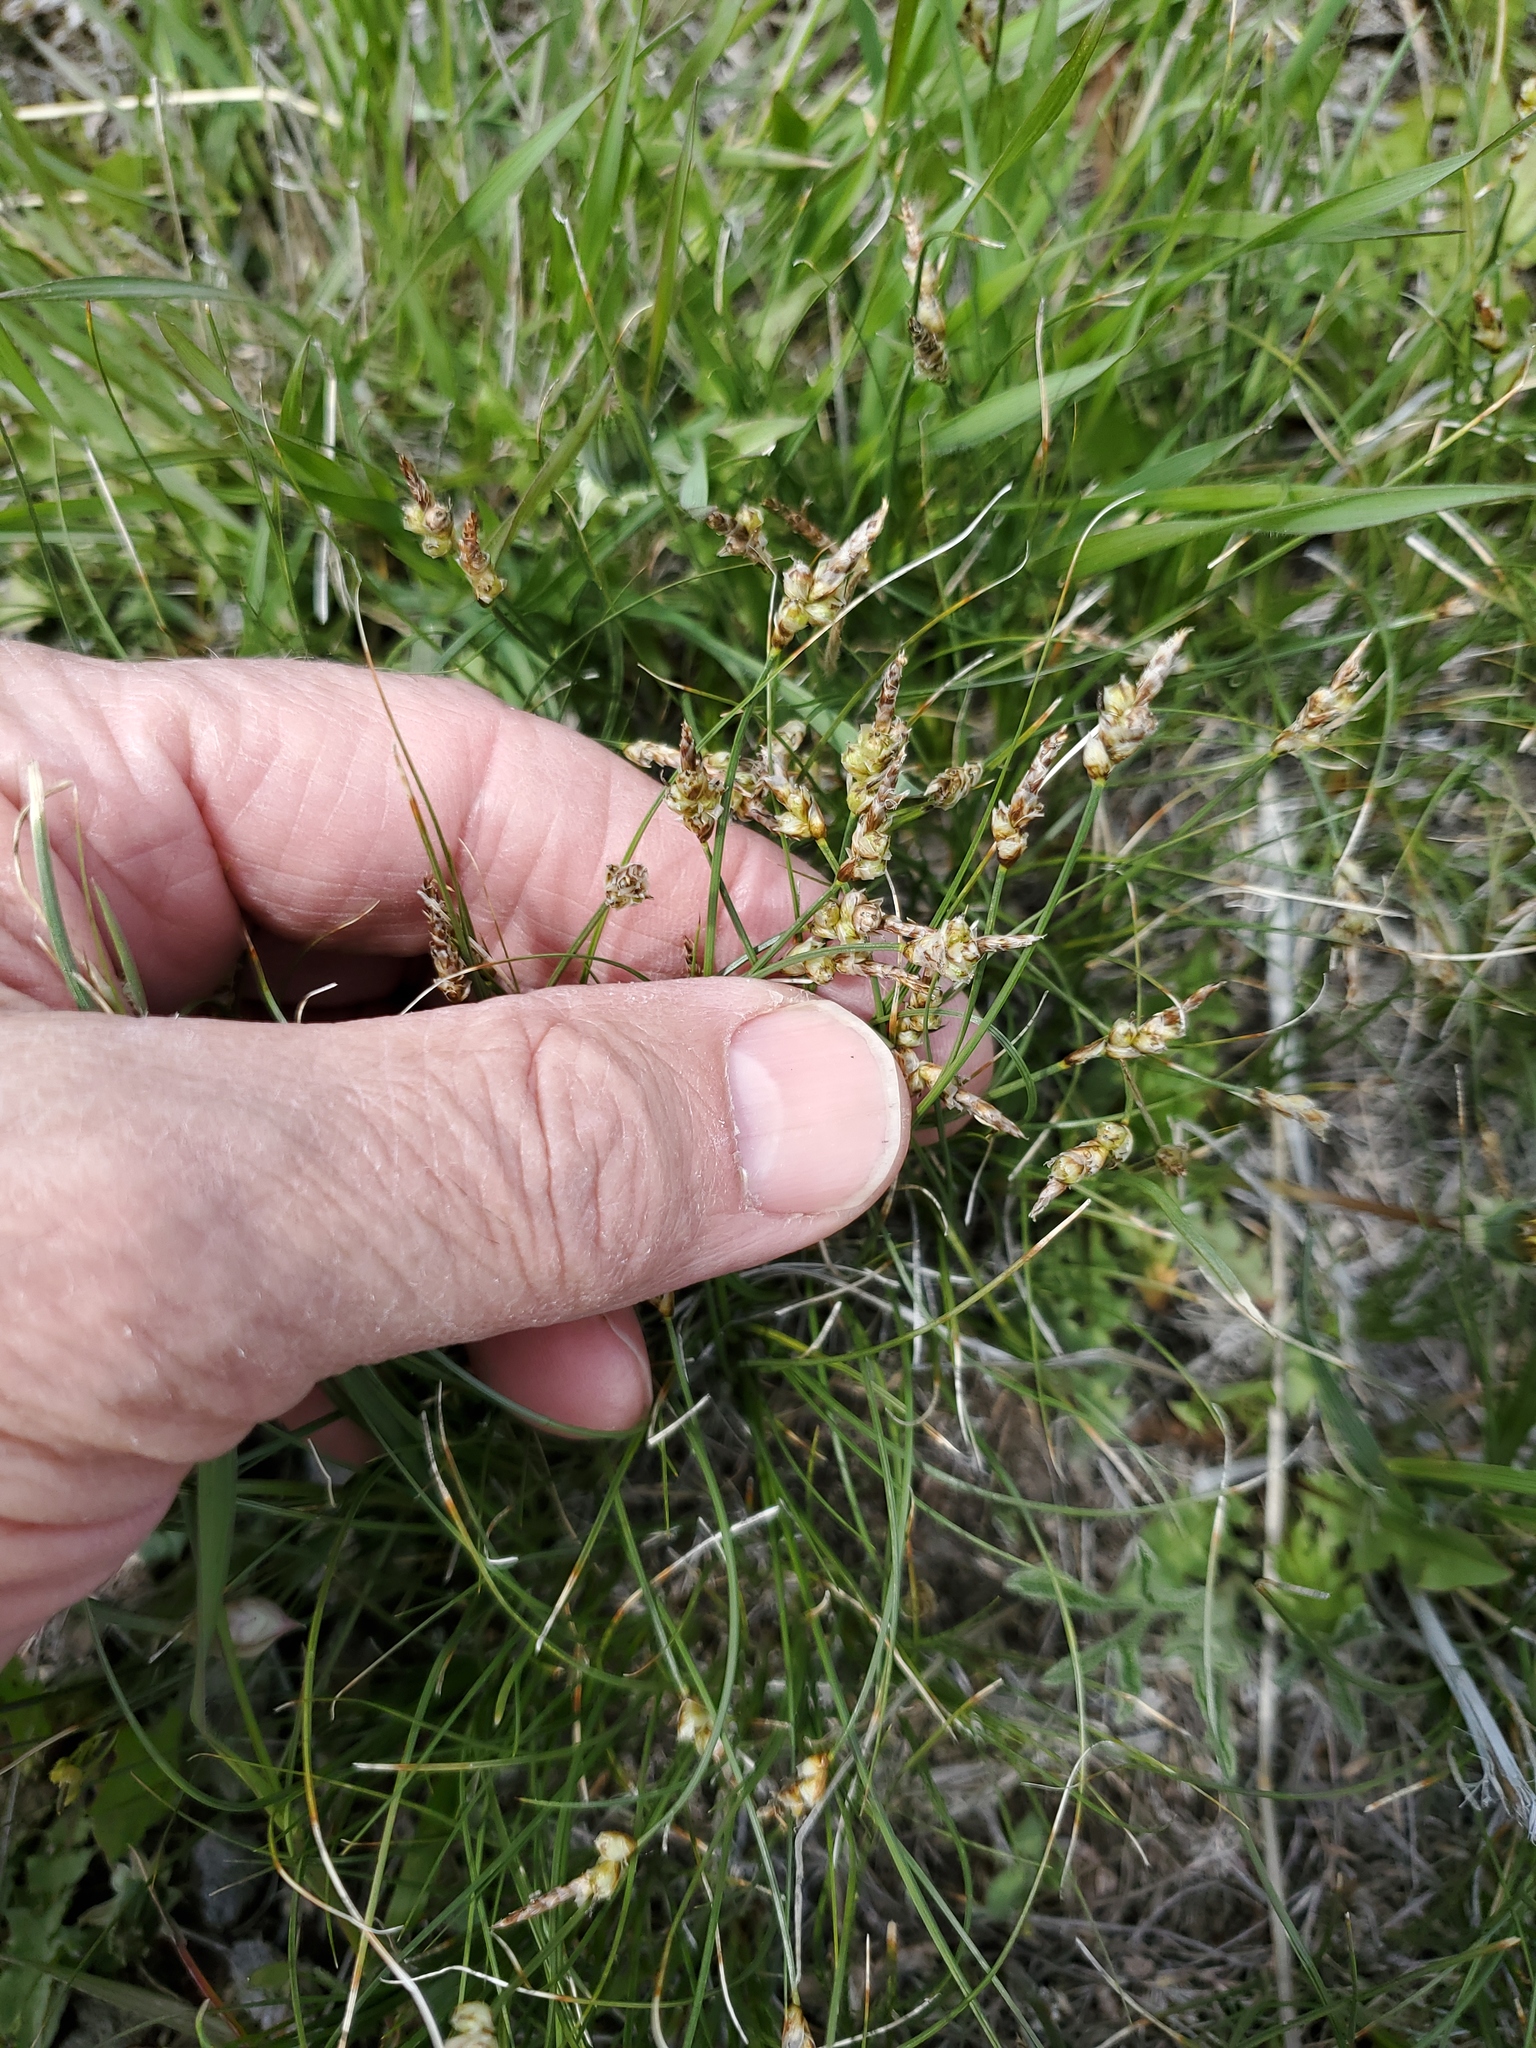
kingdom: Plantae
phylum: Tracheophyta
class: Liliopsida
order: Poales
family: Cyperaceae
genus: Carex
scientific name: Carex filifolia
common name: Threadleaf sedge
